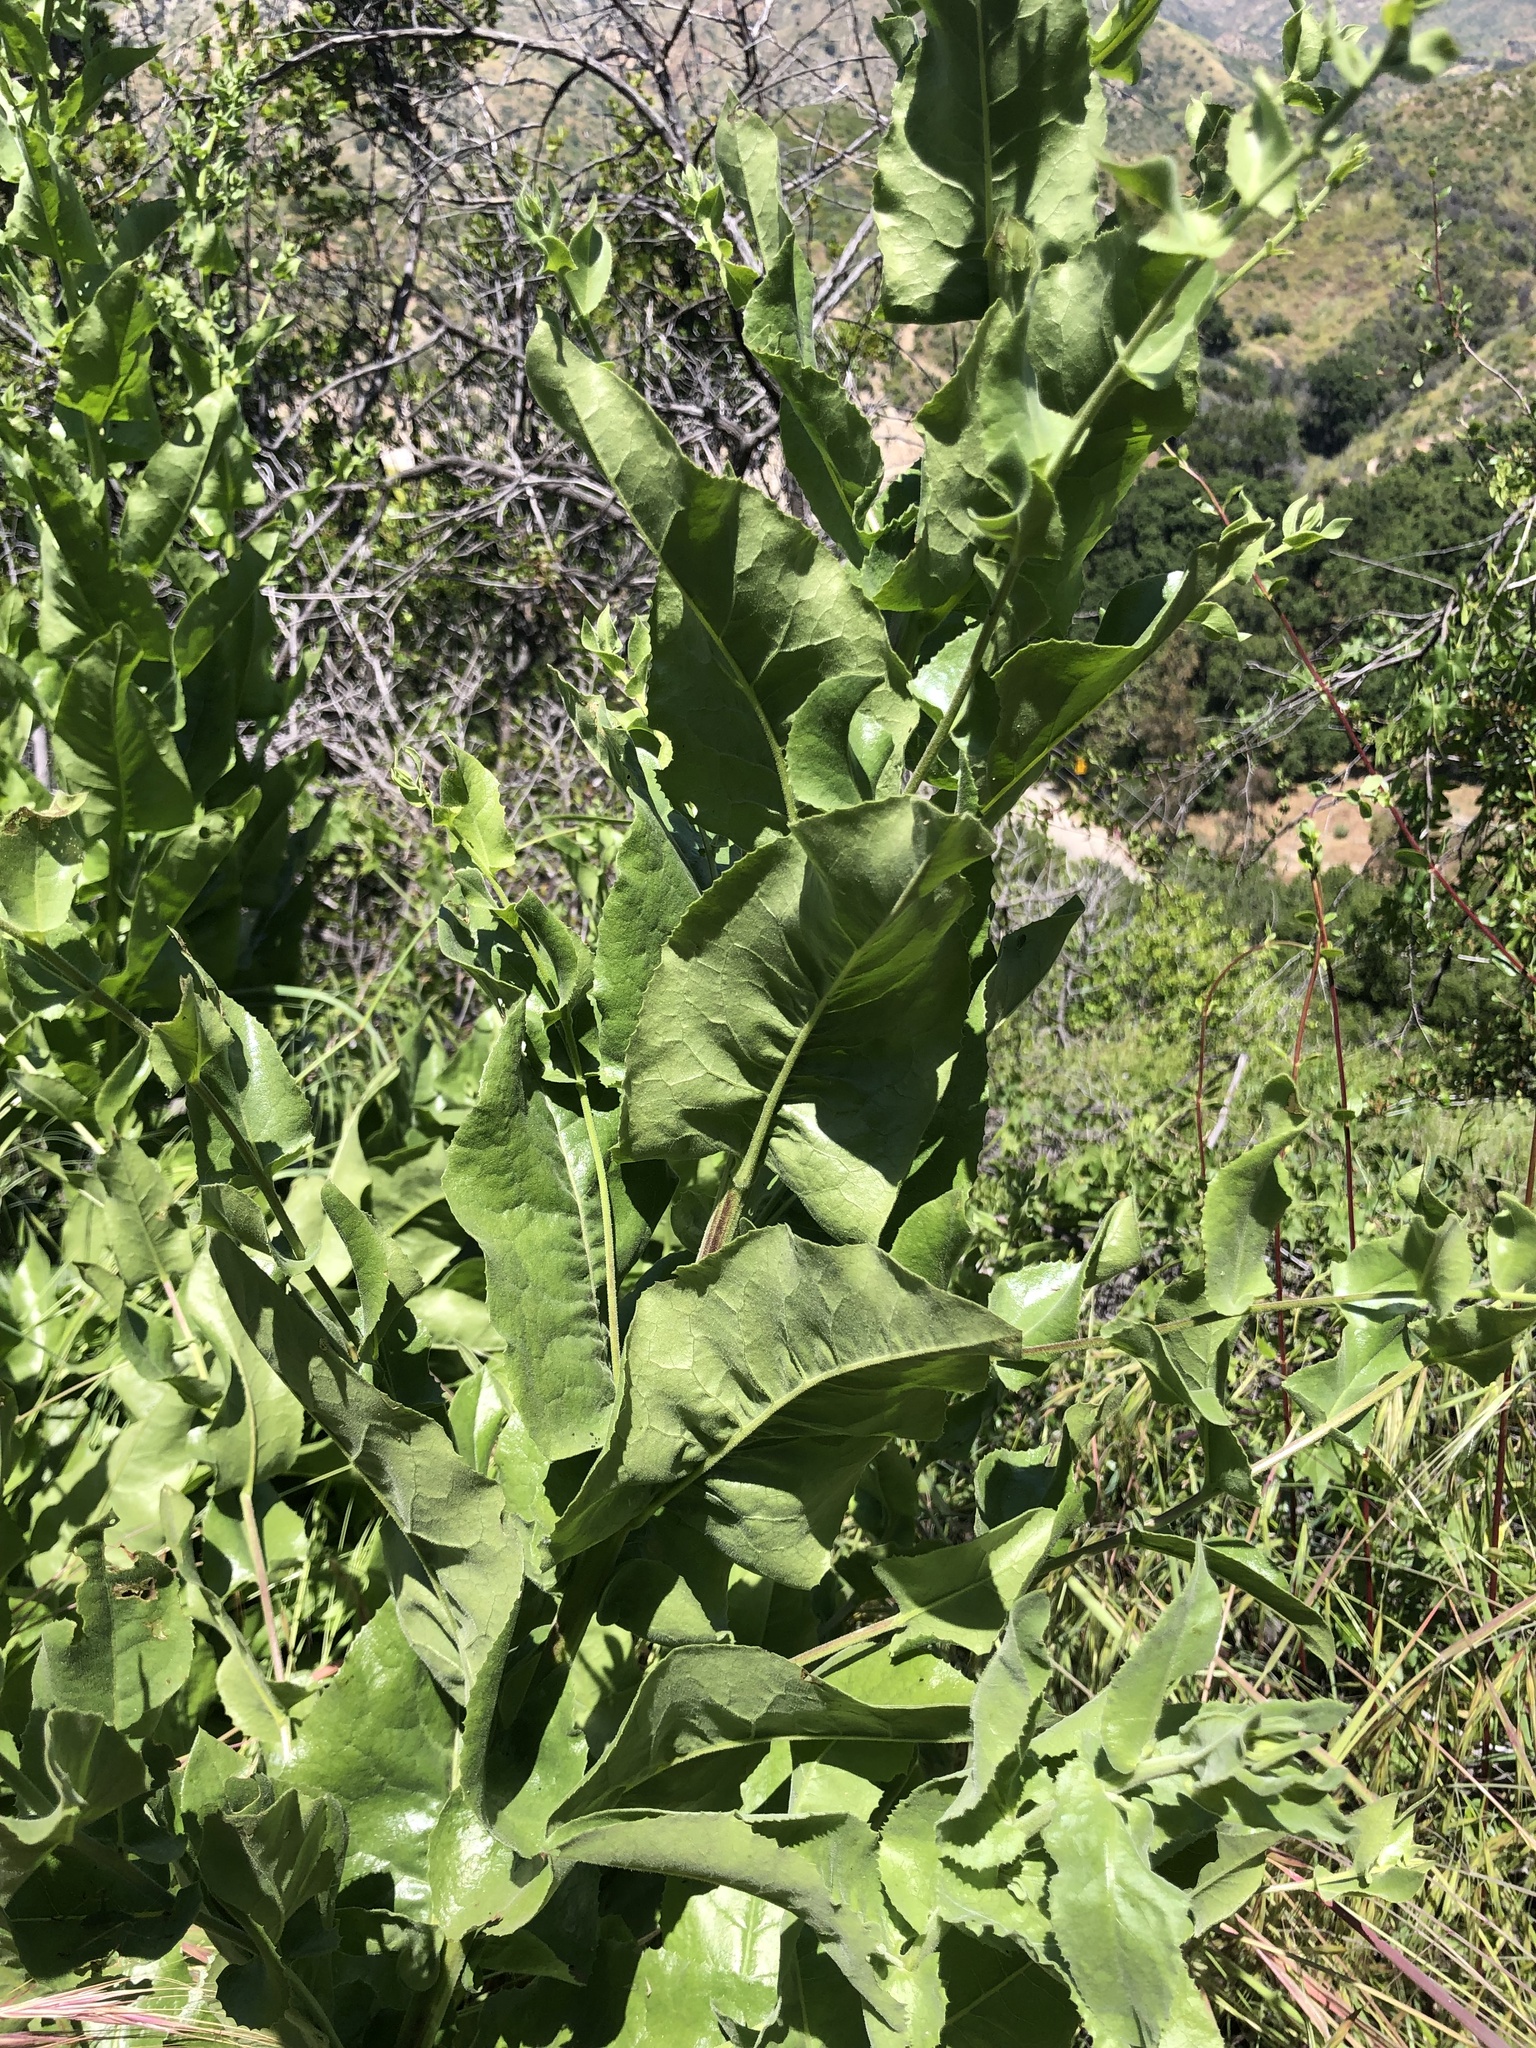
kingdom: Plantae
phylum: Tracheophyta
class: Magnoliopsida
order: Asterales
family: Asteraceae
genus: Acourtia
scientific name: Acourtia microcephala
